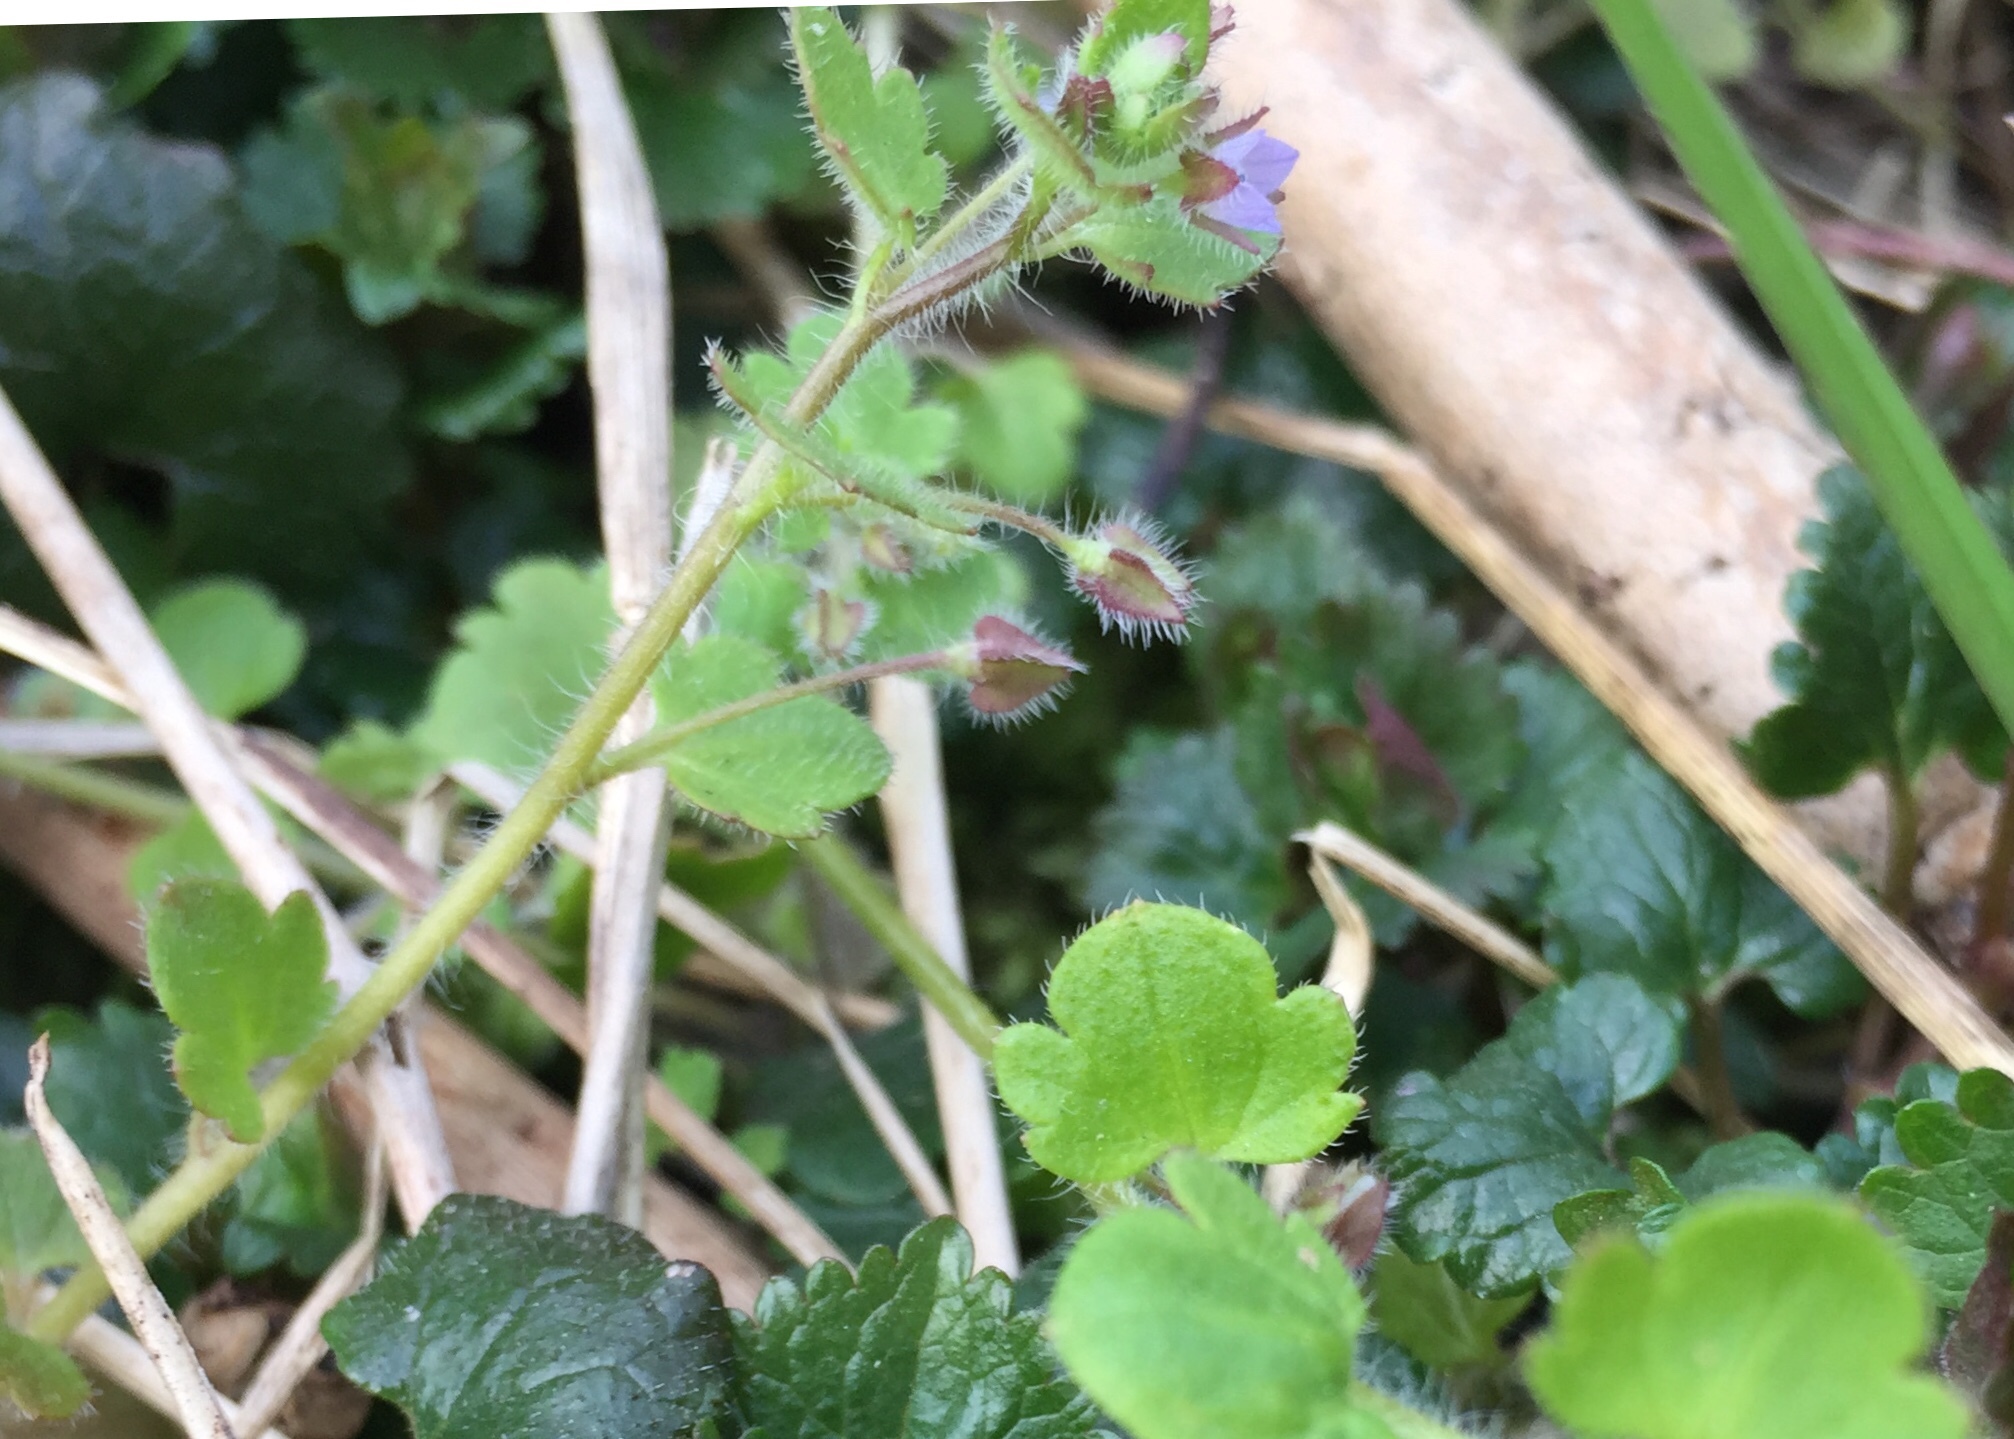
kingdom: Plantae
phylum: Tracheophyta
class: Magnoliopsida
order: Lamiales
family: Plantaginaceae
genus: Veronica
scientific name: Veronica sublobata
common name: False ivy-leaved speedwell
